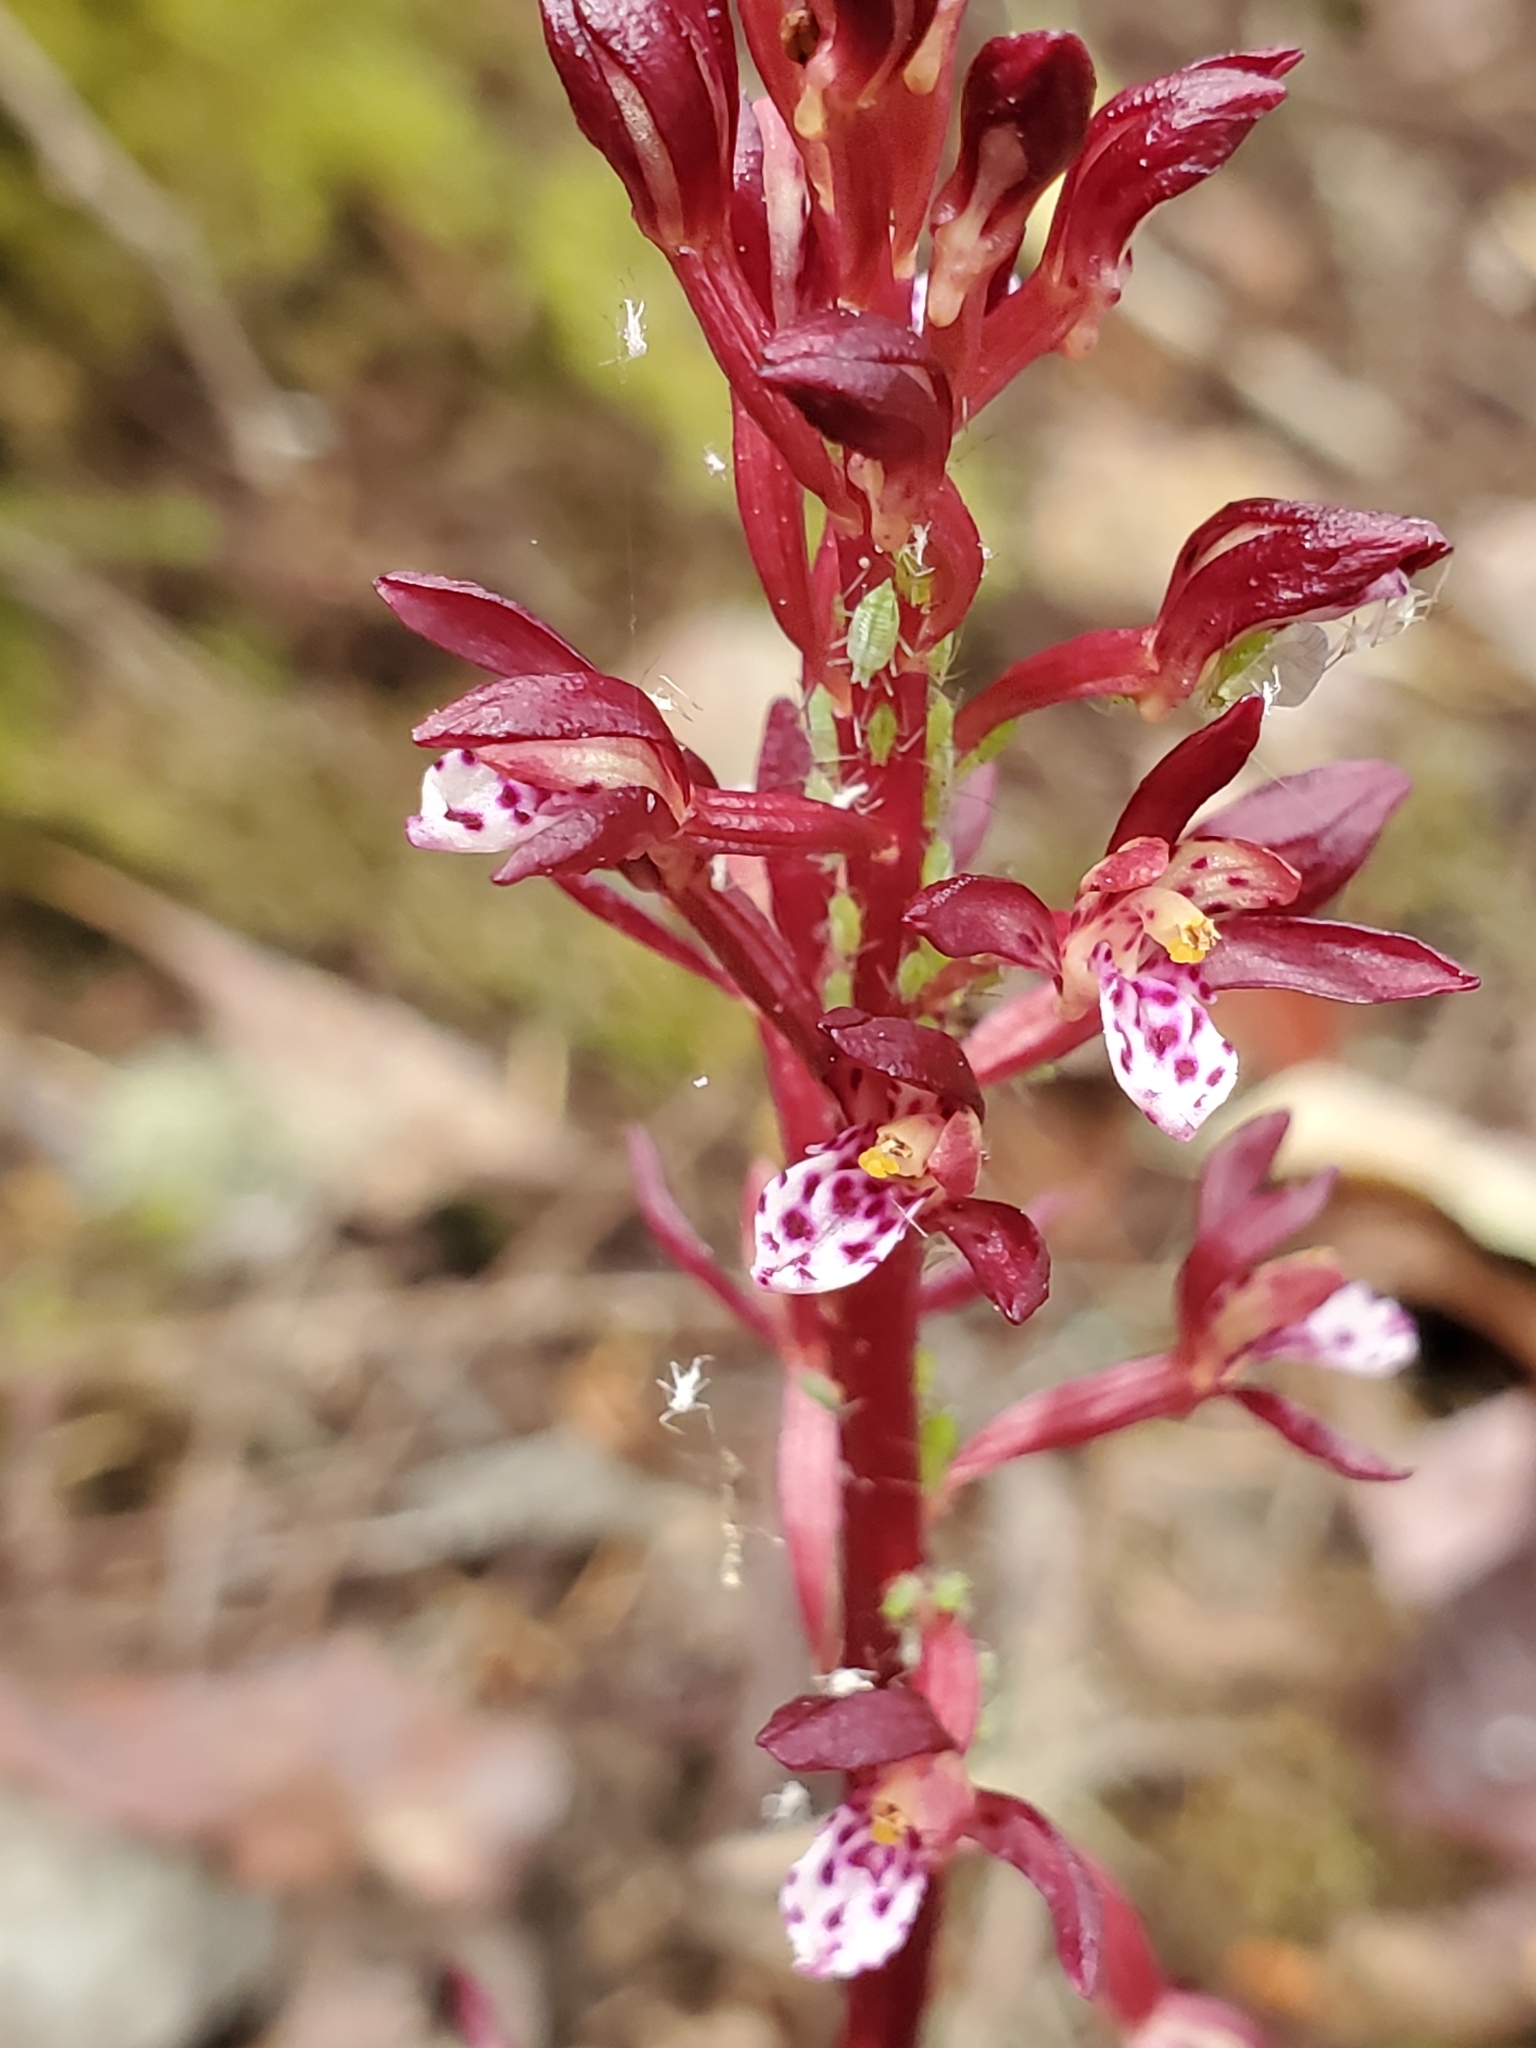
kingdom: Plantae
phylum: Tracheophyta
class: Liliopsida
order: Asparagales
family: Orchidaceae
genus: Corallorhiza
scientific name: Corallorhiza maculata
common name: Spotted coralroot
